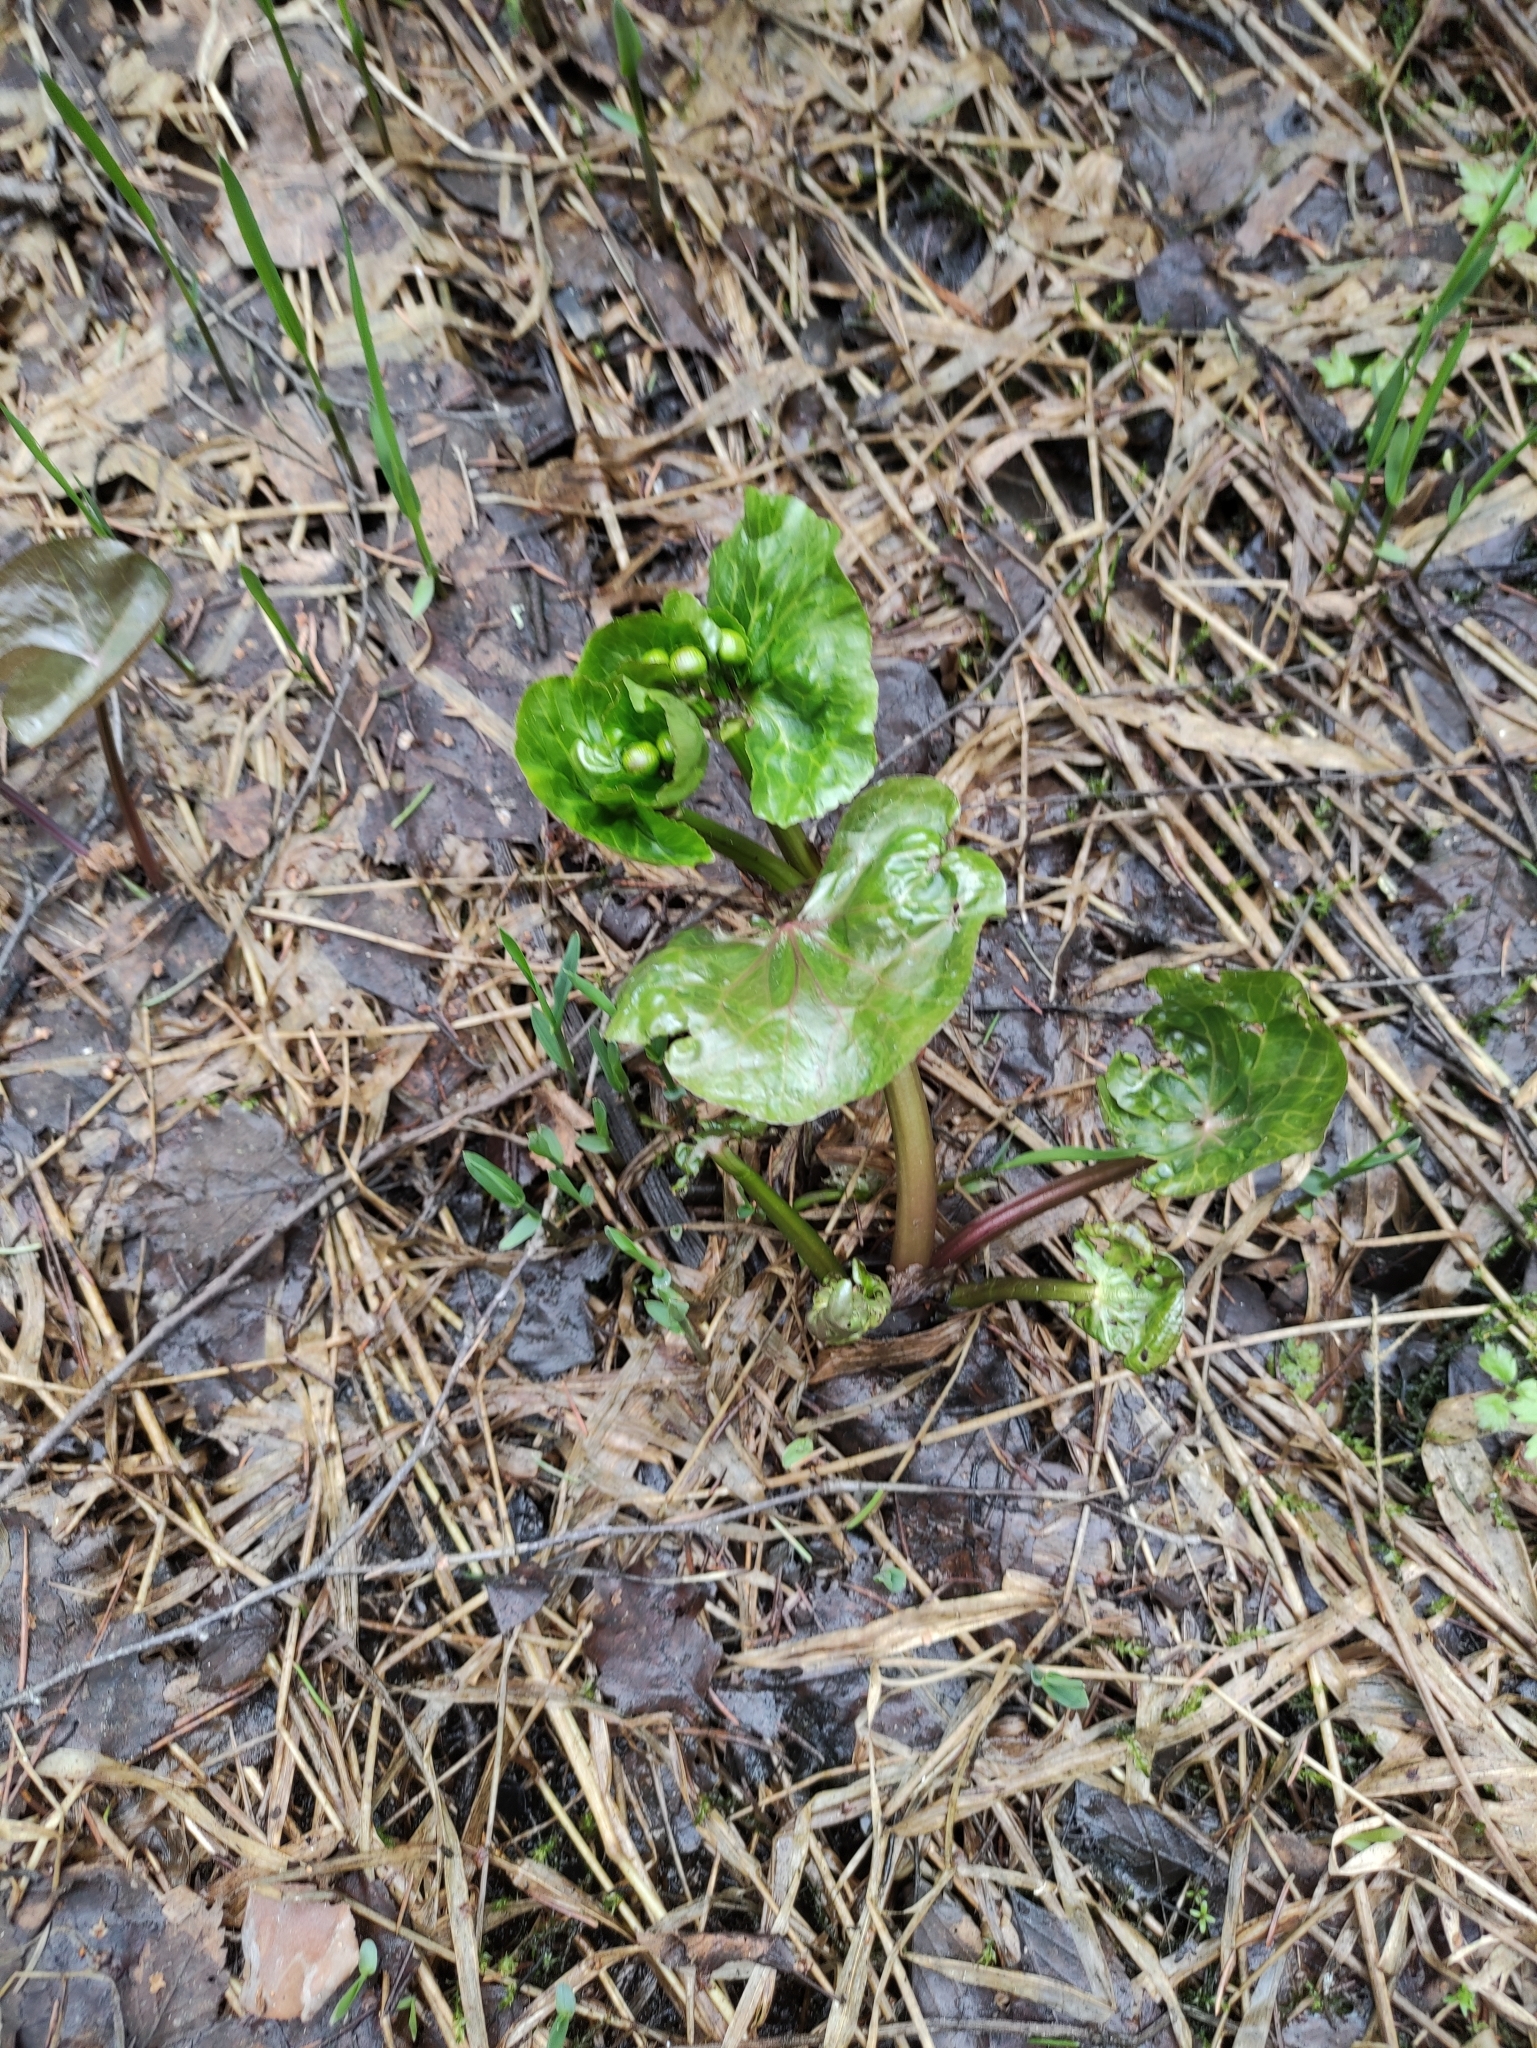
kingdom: Plantae
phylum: Tracheophyta
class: Magnoliopsida
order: Ranunculales
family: Ranunculaceae
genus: Caltha
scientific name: Caltha palustris
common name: Marsh marigold
